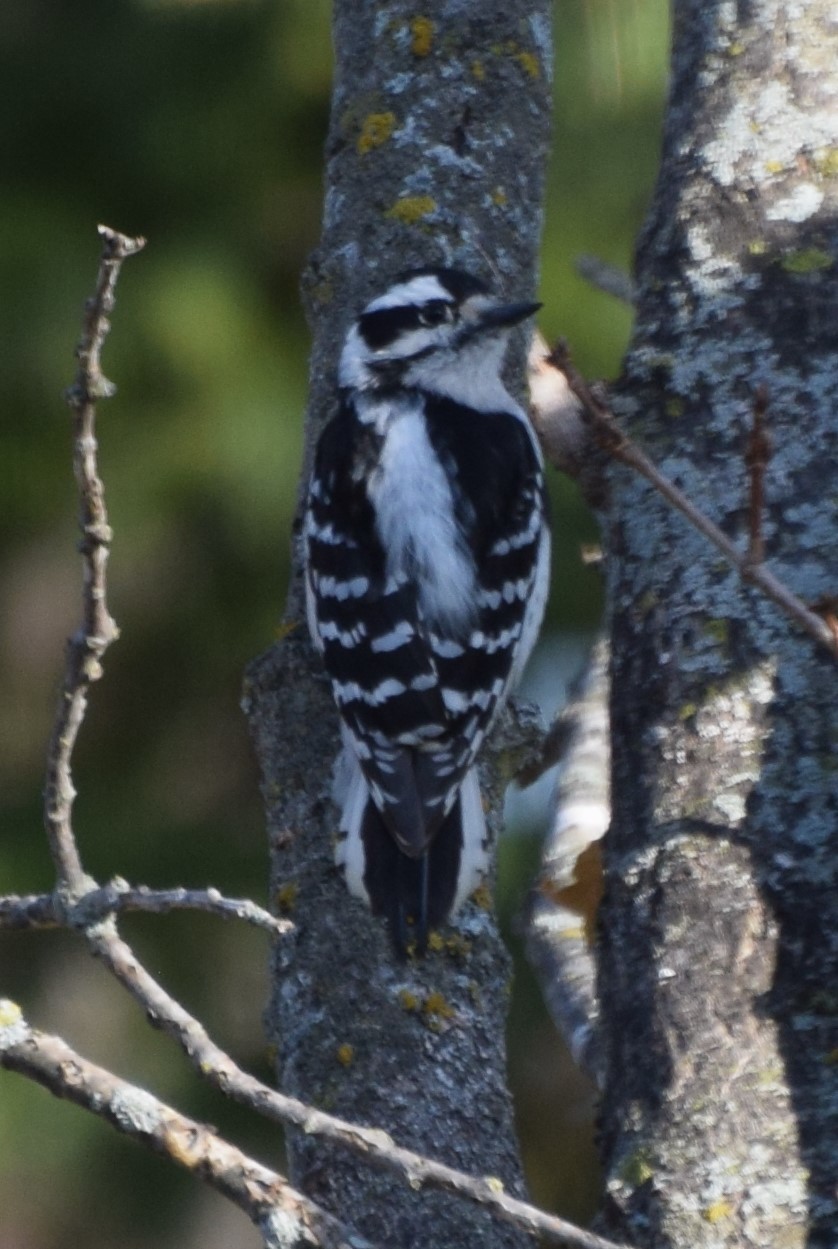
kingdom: Animalia
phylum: Chordata
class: Aves
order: Piciformes
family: Picidae
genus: Dryobates
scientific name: Dryobates pubescens
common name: Downy woodpecker
